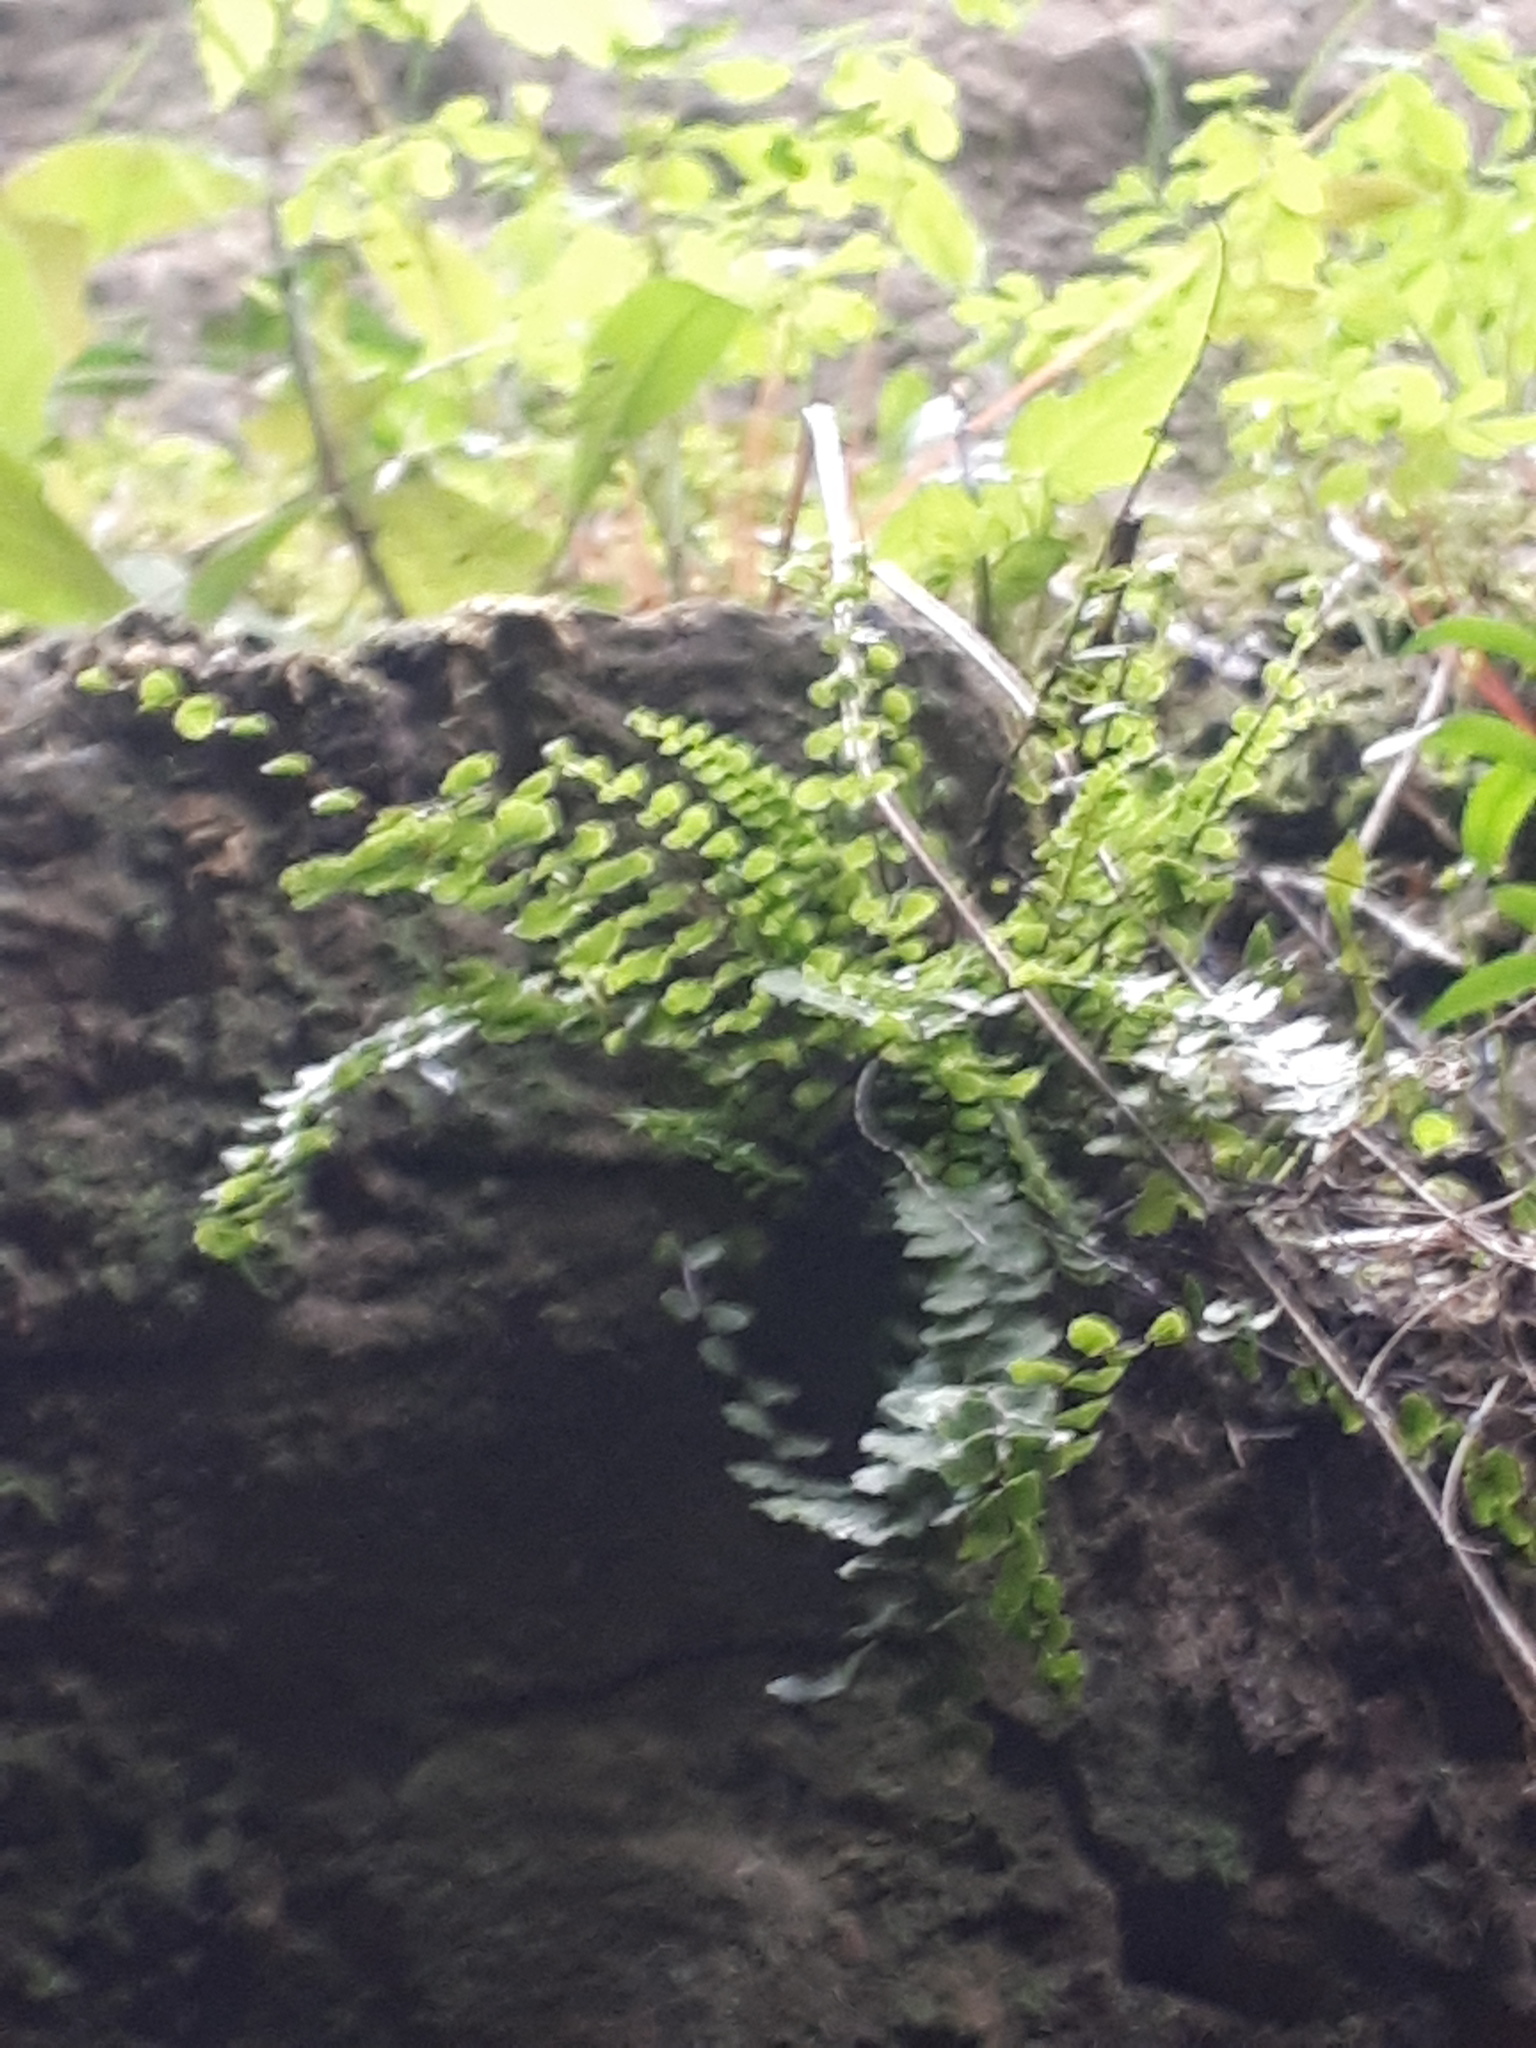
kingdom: Plantae
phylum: Tracheophyta
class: Polypodiopsida
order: Polypodiales
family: Aspleniaceae
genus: Asplenium
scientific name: Asplenium trichomanes
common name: Maidenhair spleenwort
